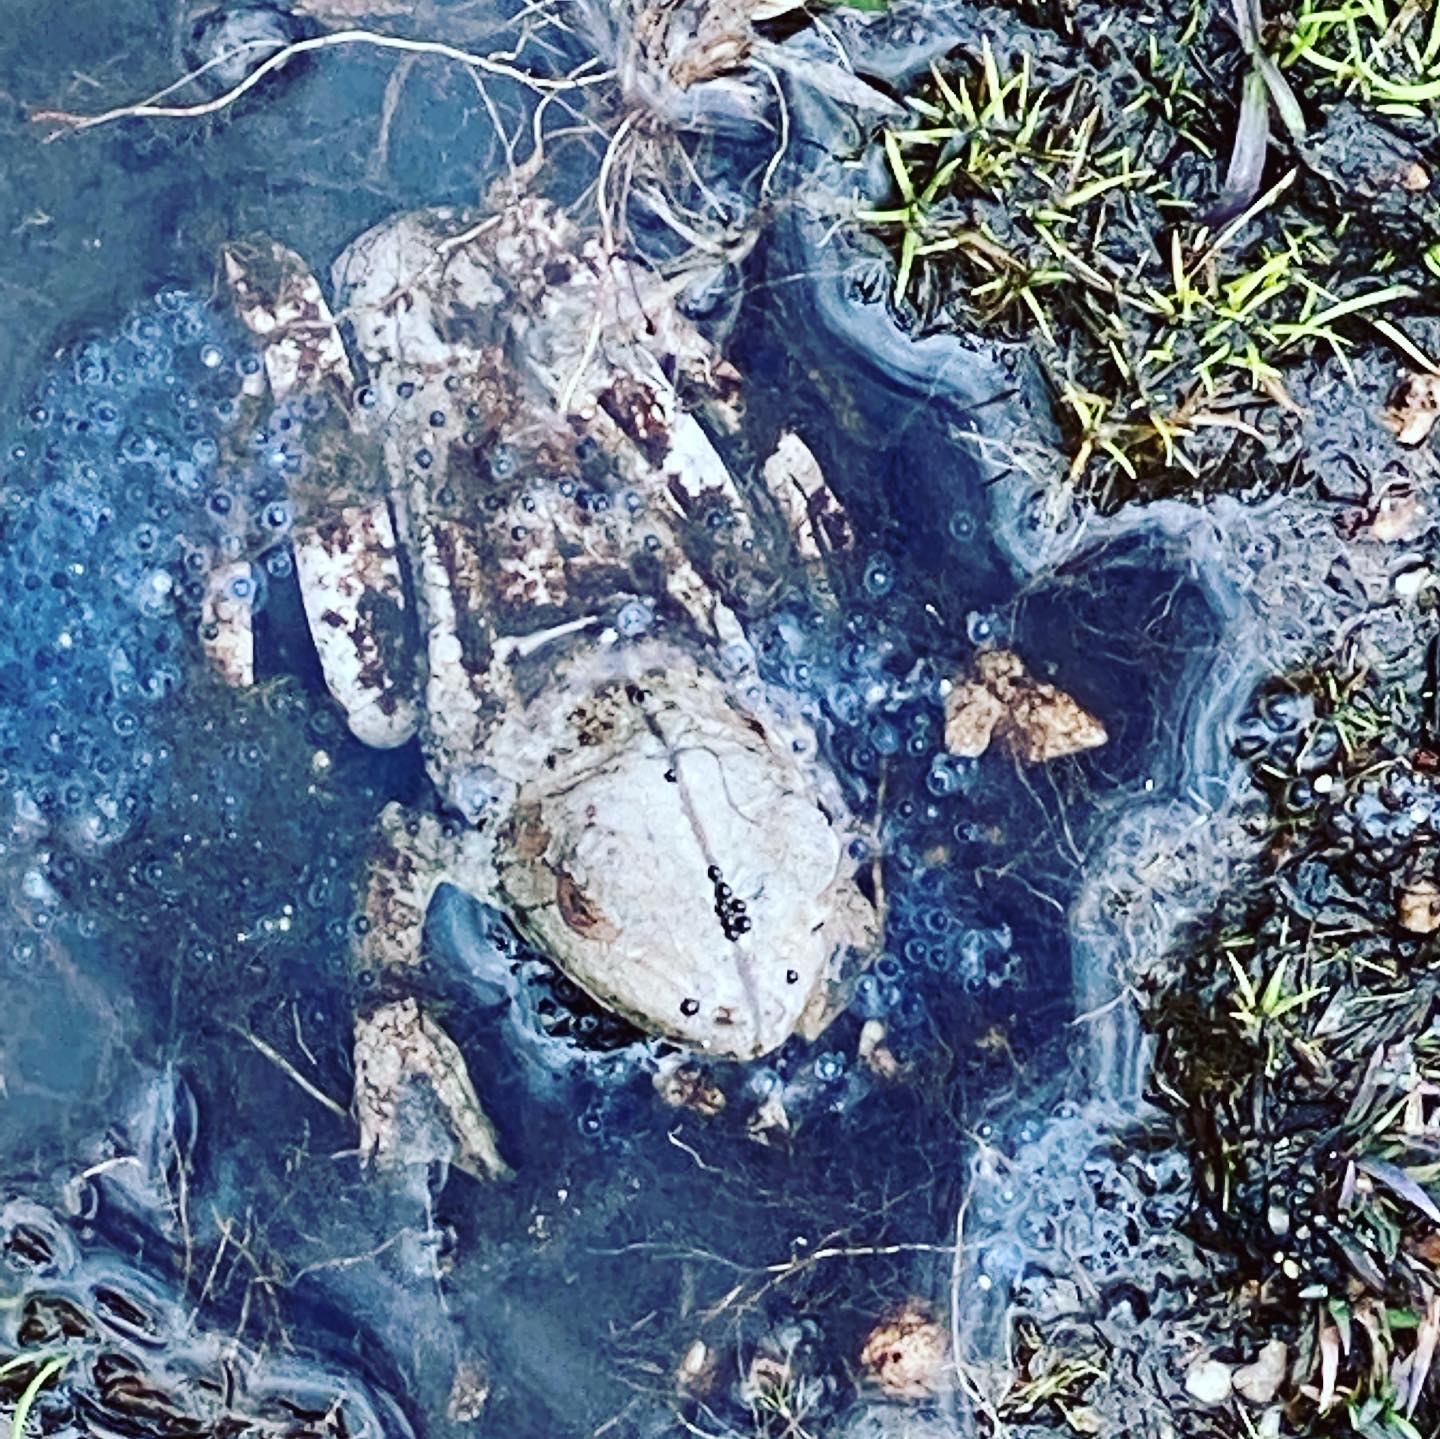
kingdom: Animalia
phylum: Chordata
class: Amphibia
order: Anura
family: Hylidae
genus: Boana
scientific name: Boana boans
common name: Giant gladiator treefrog
